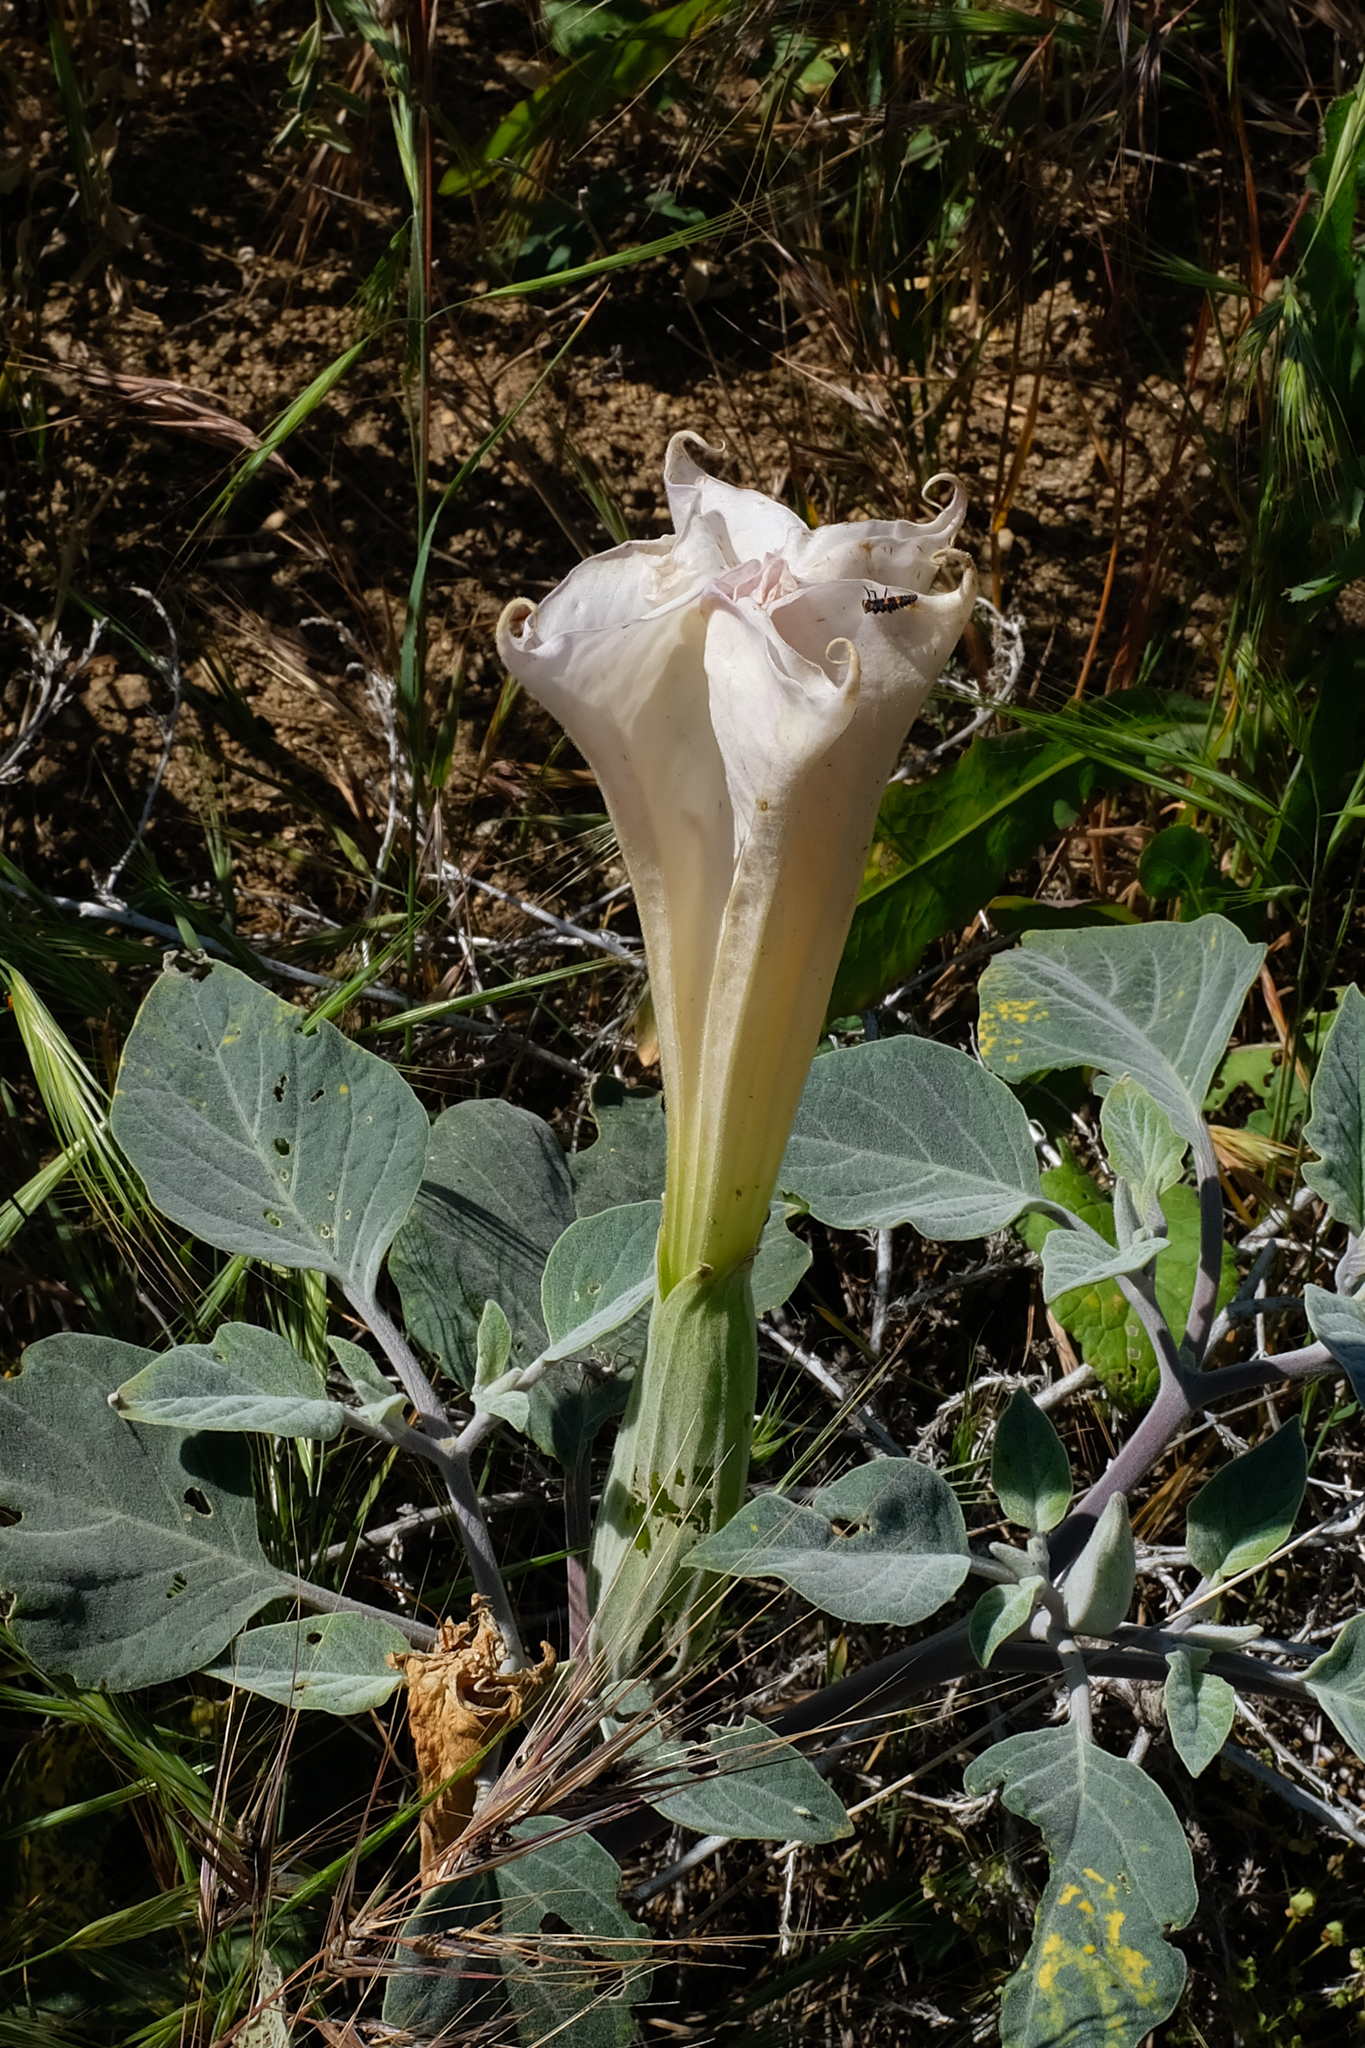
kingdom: Plantae
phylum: Tracheophyta
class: Magnoliopsida
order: Solanales
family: Solanaceae
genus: Datura
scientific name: Datura wrightii
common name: Sacred thorn-apple
